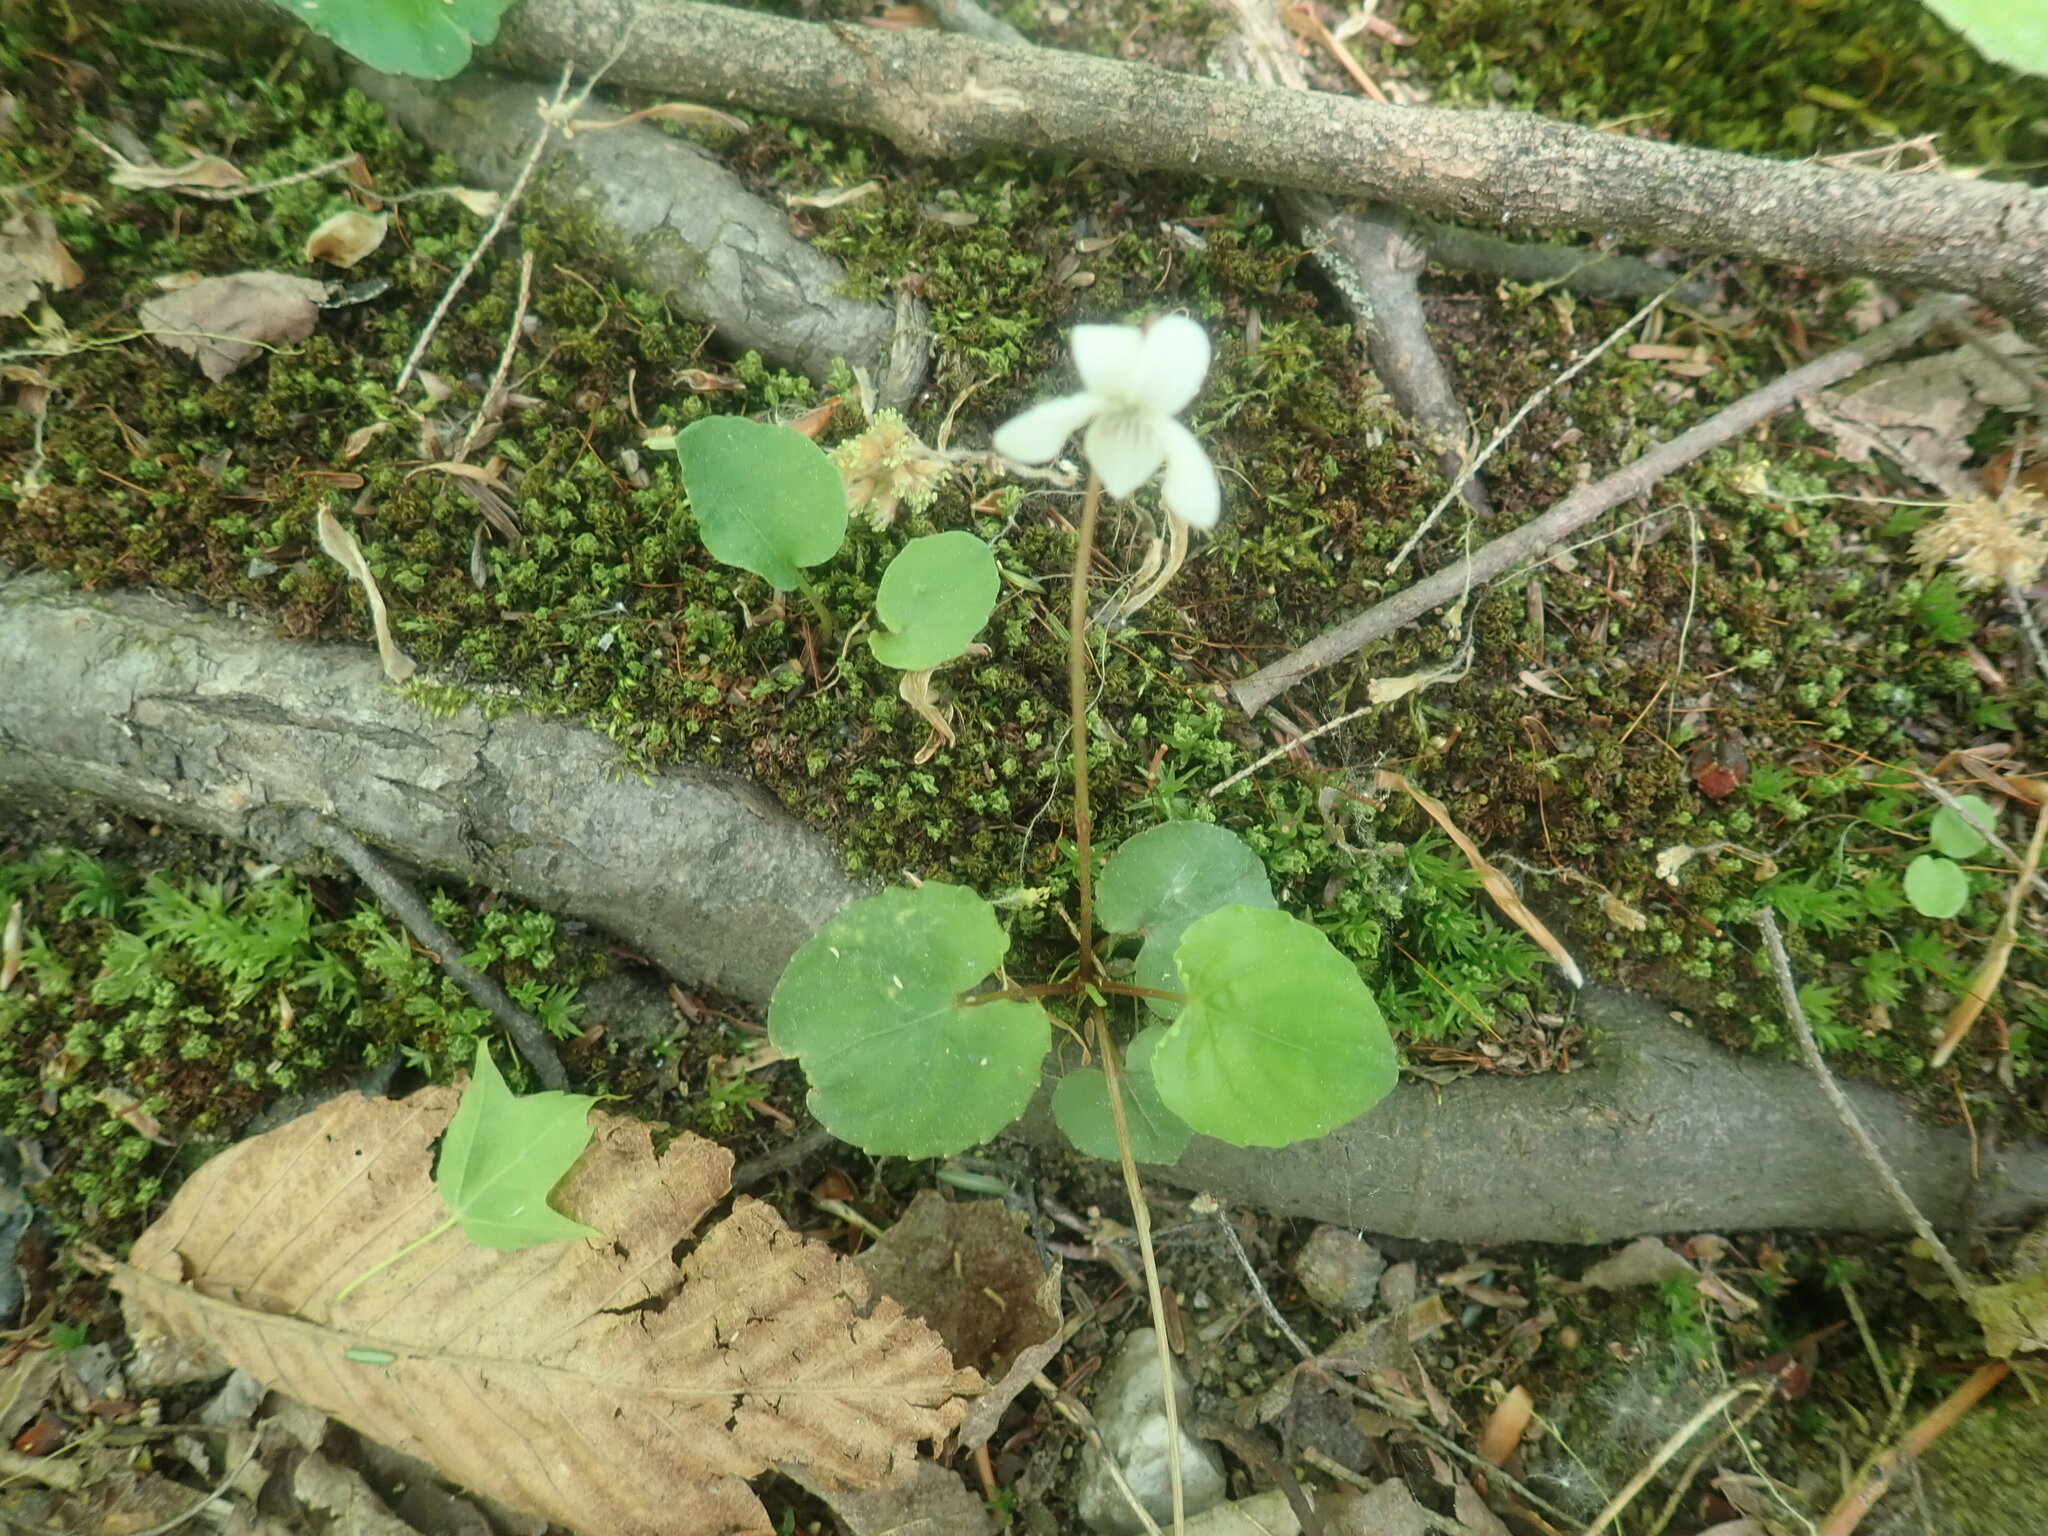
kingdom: Plantae
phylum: Tracheophyta
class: Magnoliopsida
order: Malpighiales
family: Violaceae
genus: Viola
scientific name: Viola blanda
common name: Sweet white violet
